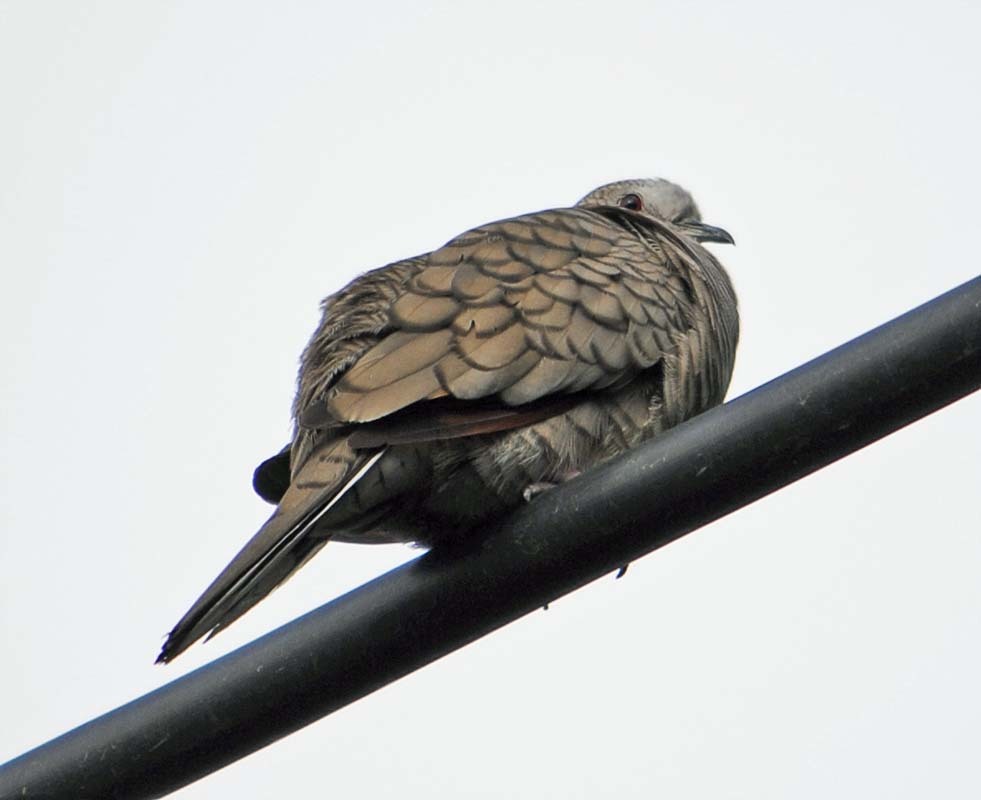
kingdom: Animalia
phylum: Chordata
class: Aves
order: Columbiformes
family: Columbidae
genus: Columbina
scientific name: Columbina inca
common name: Inca dove
